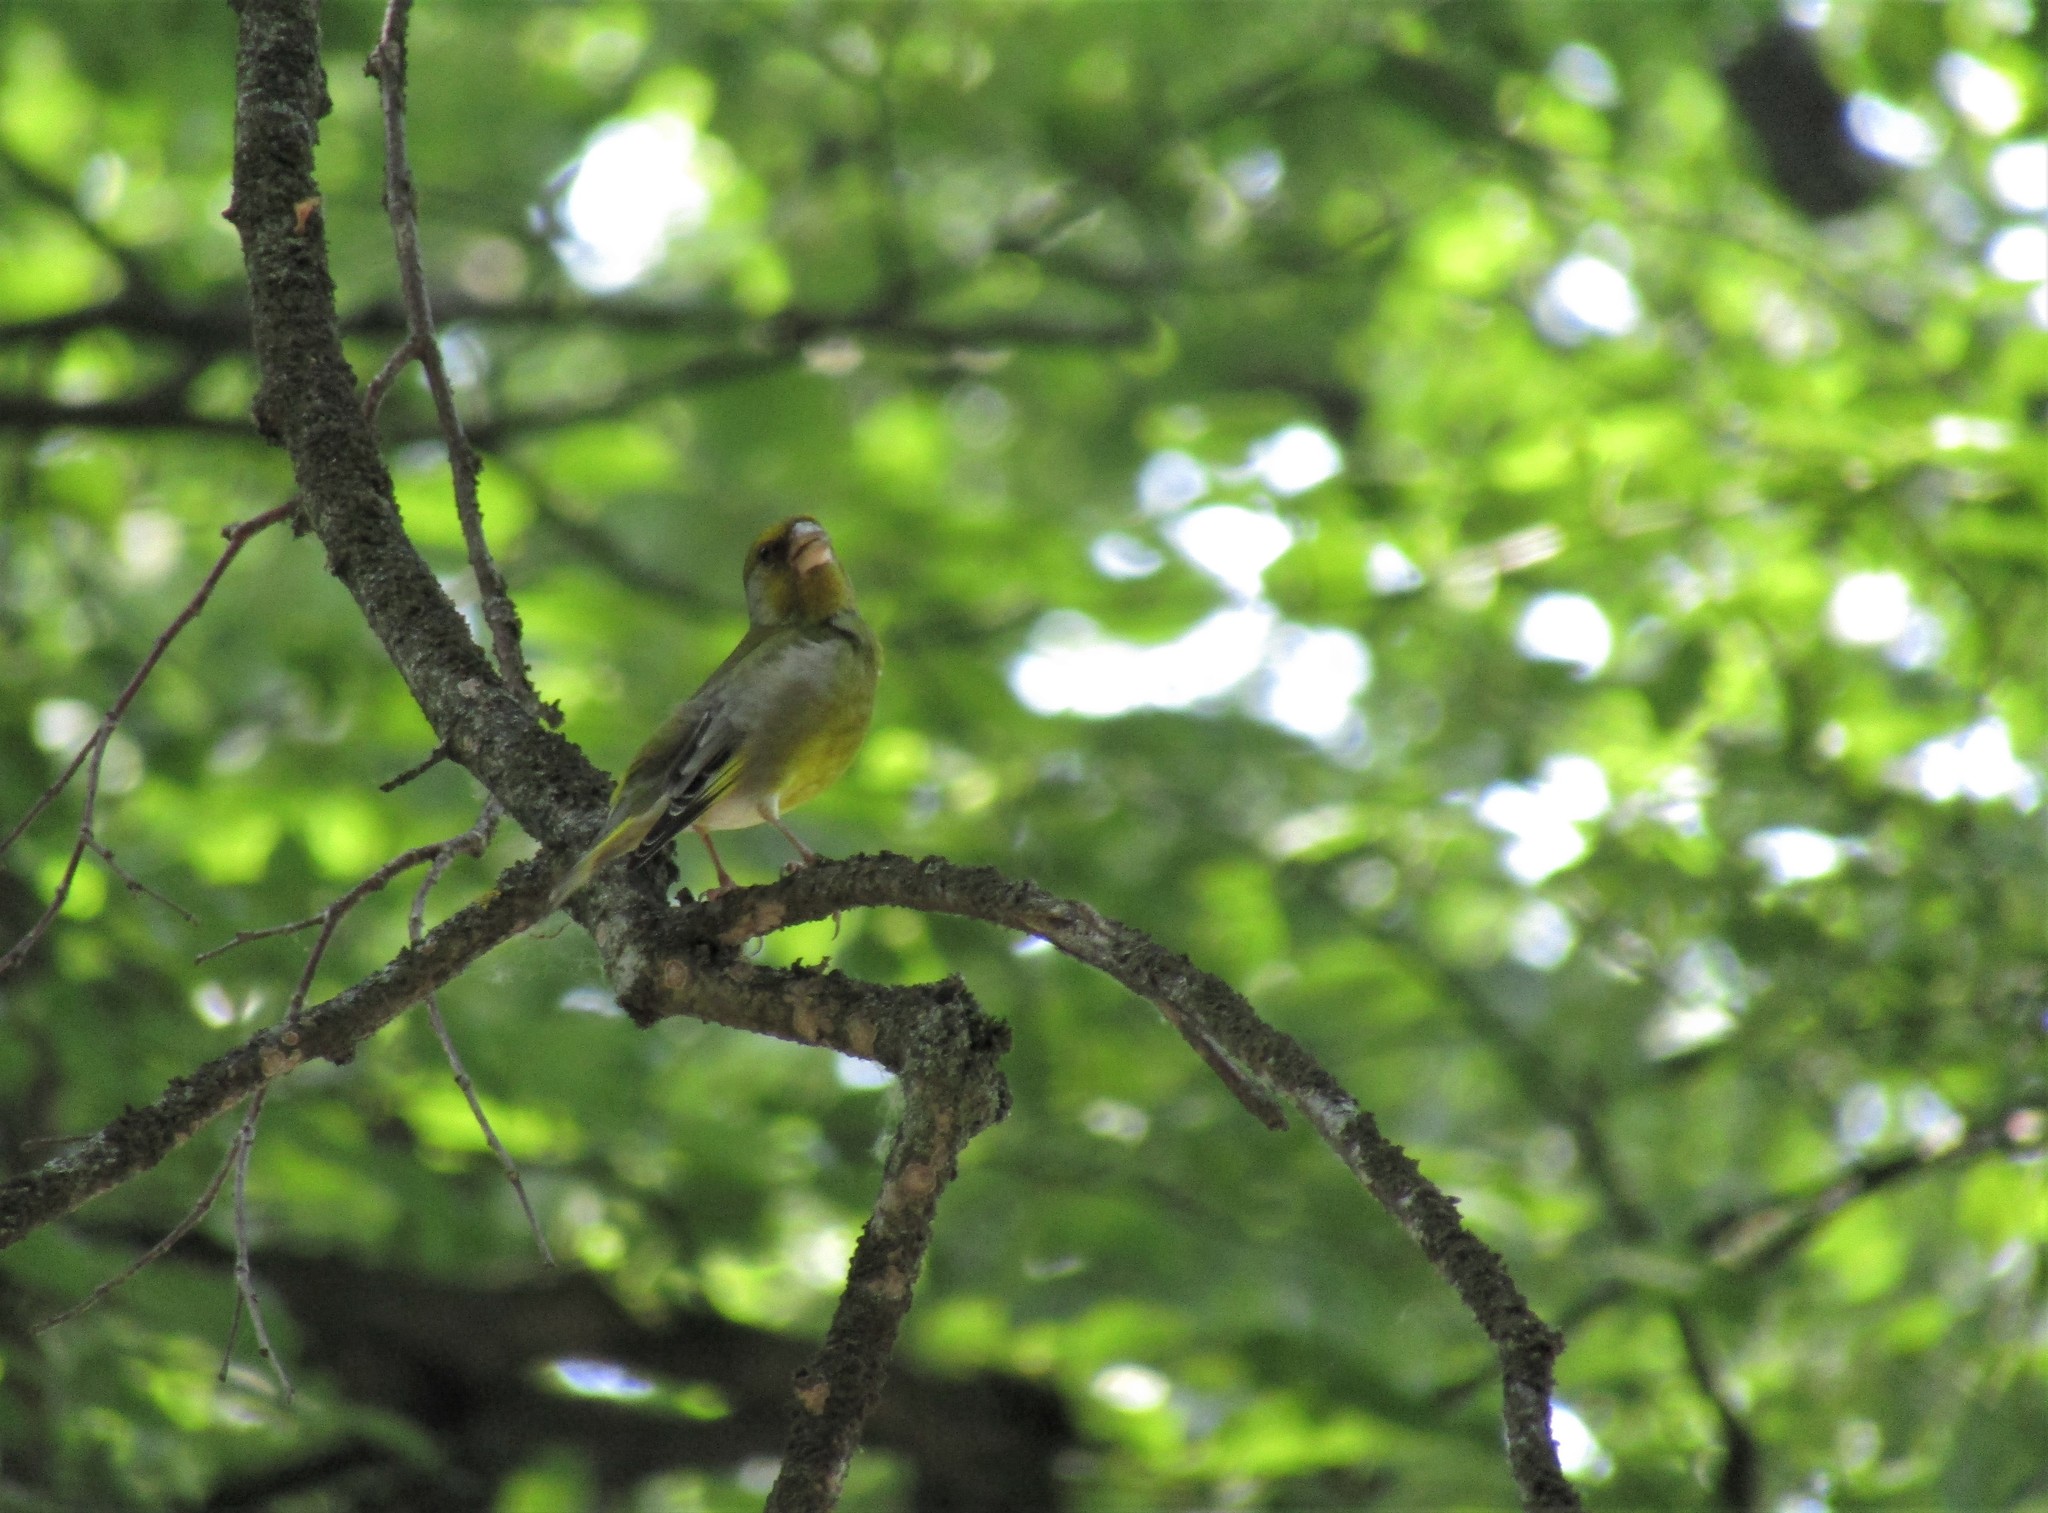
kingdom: Plantae
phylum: Tracheophyta
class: Liliopsida
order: Poales
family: Poaceae
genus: Chloris
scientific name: Chloris chloris
